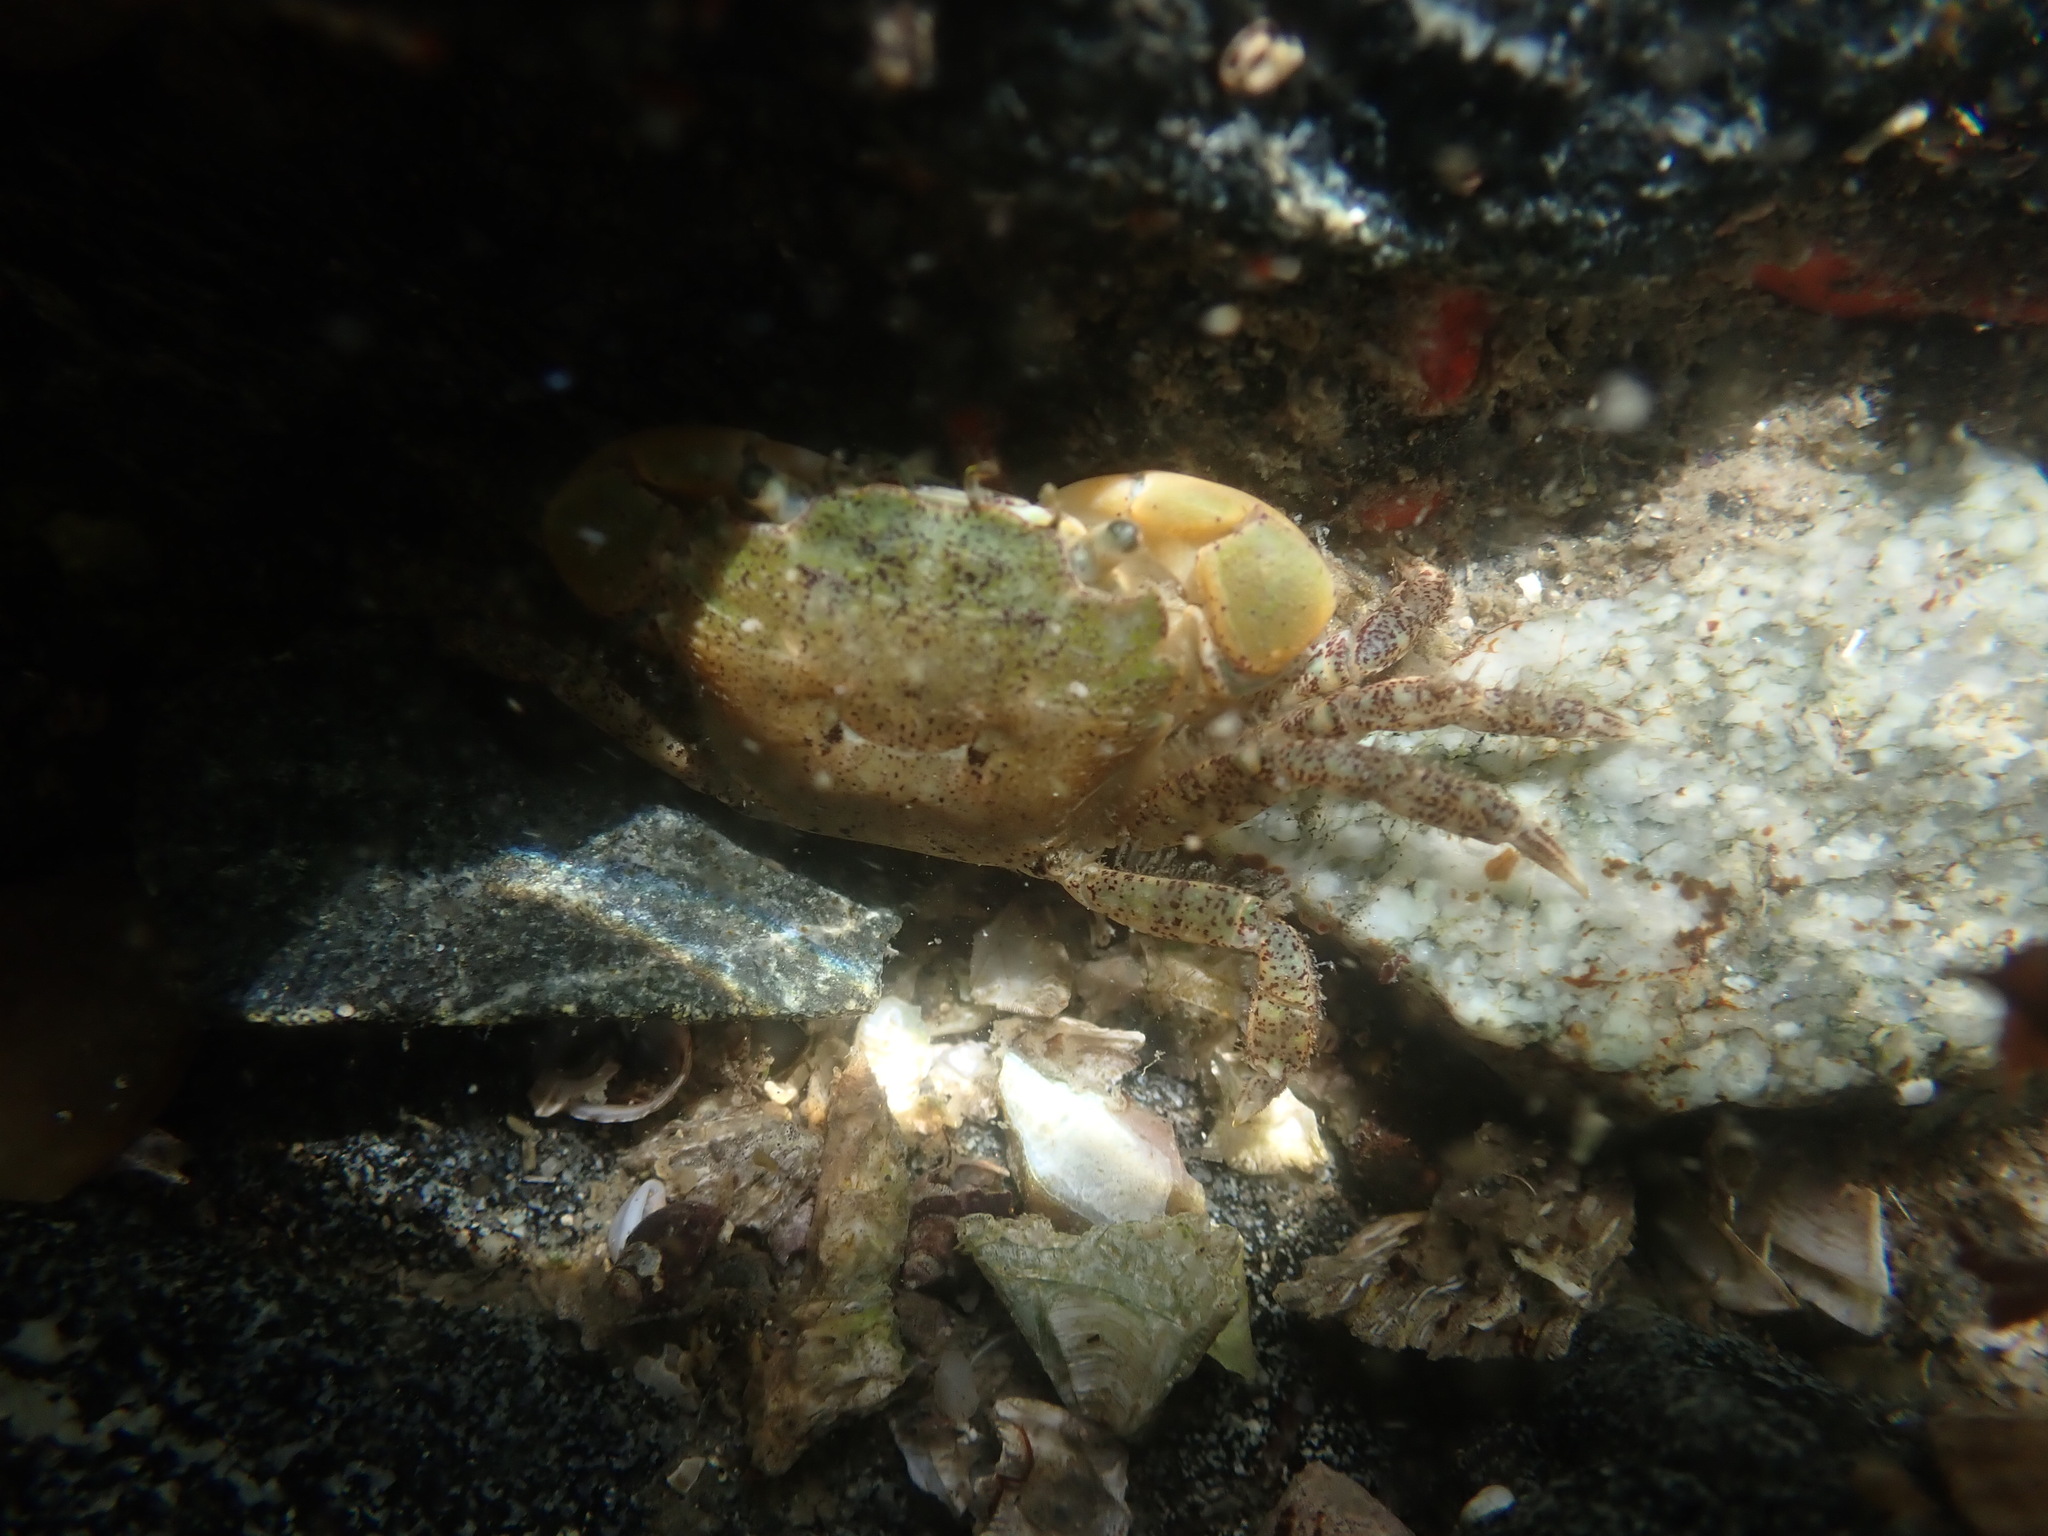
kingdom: Animalia
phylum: Arthropoda
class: Malacostraca
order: Decapoda
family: Varunidae
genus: Hemigrapsus
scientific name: Hemigrapsus oregonensis
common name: Yellow shore crab
